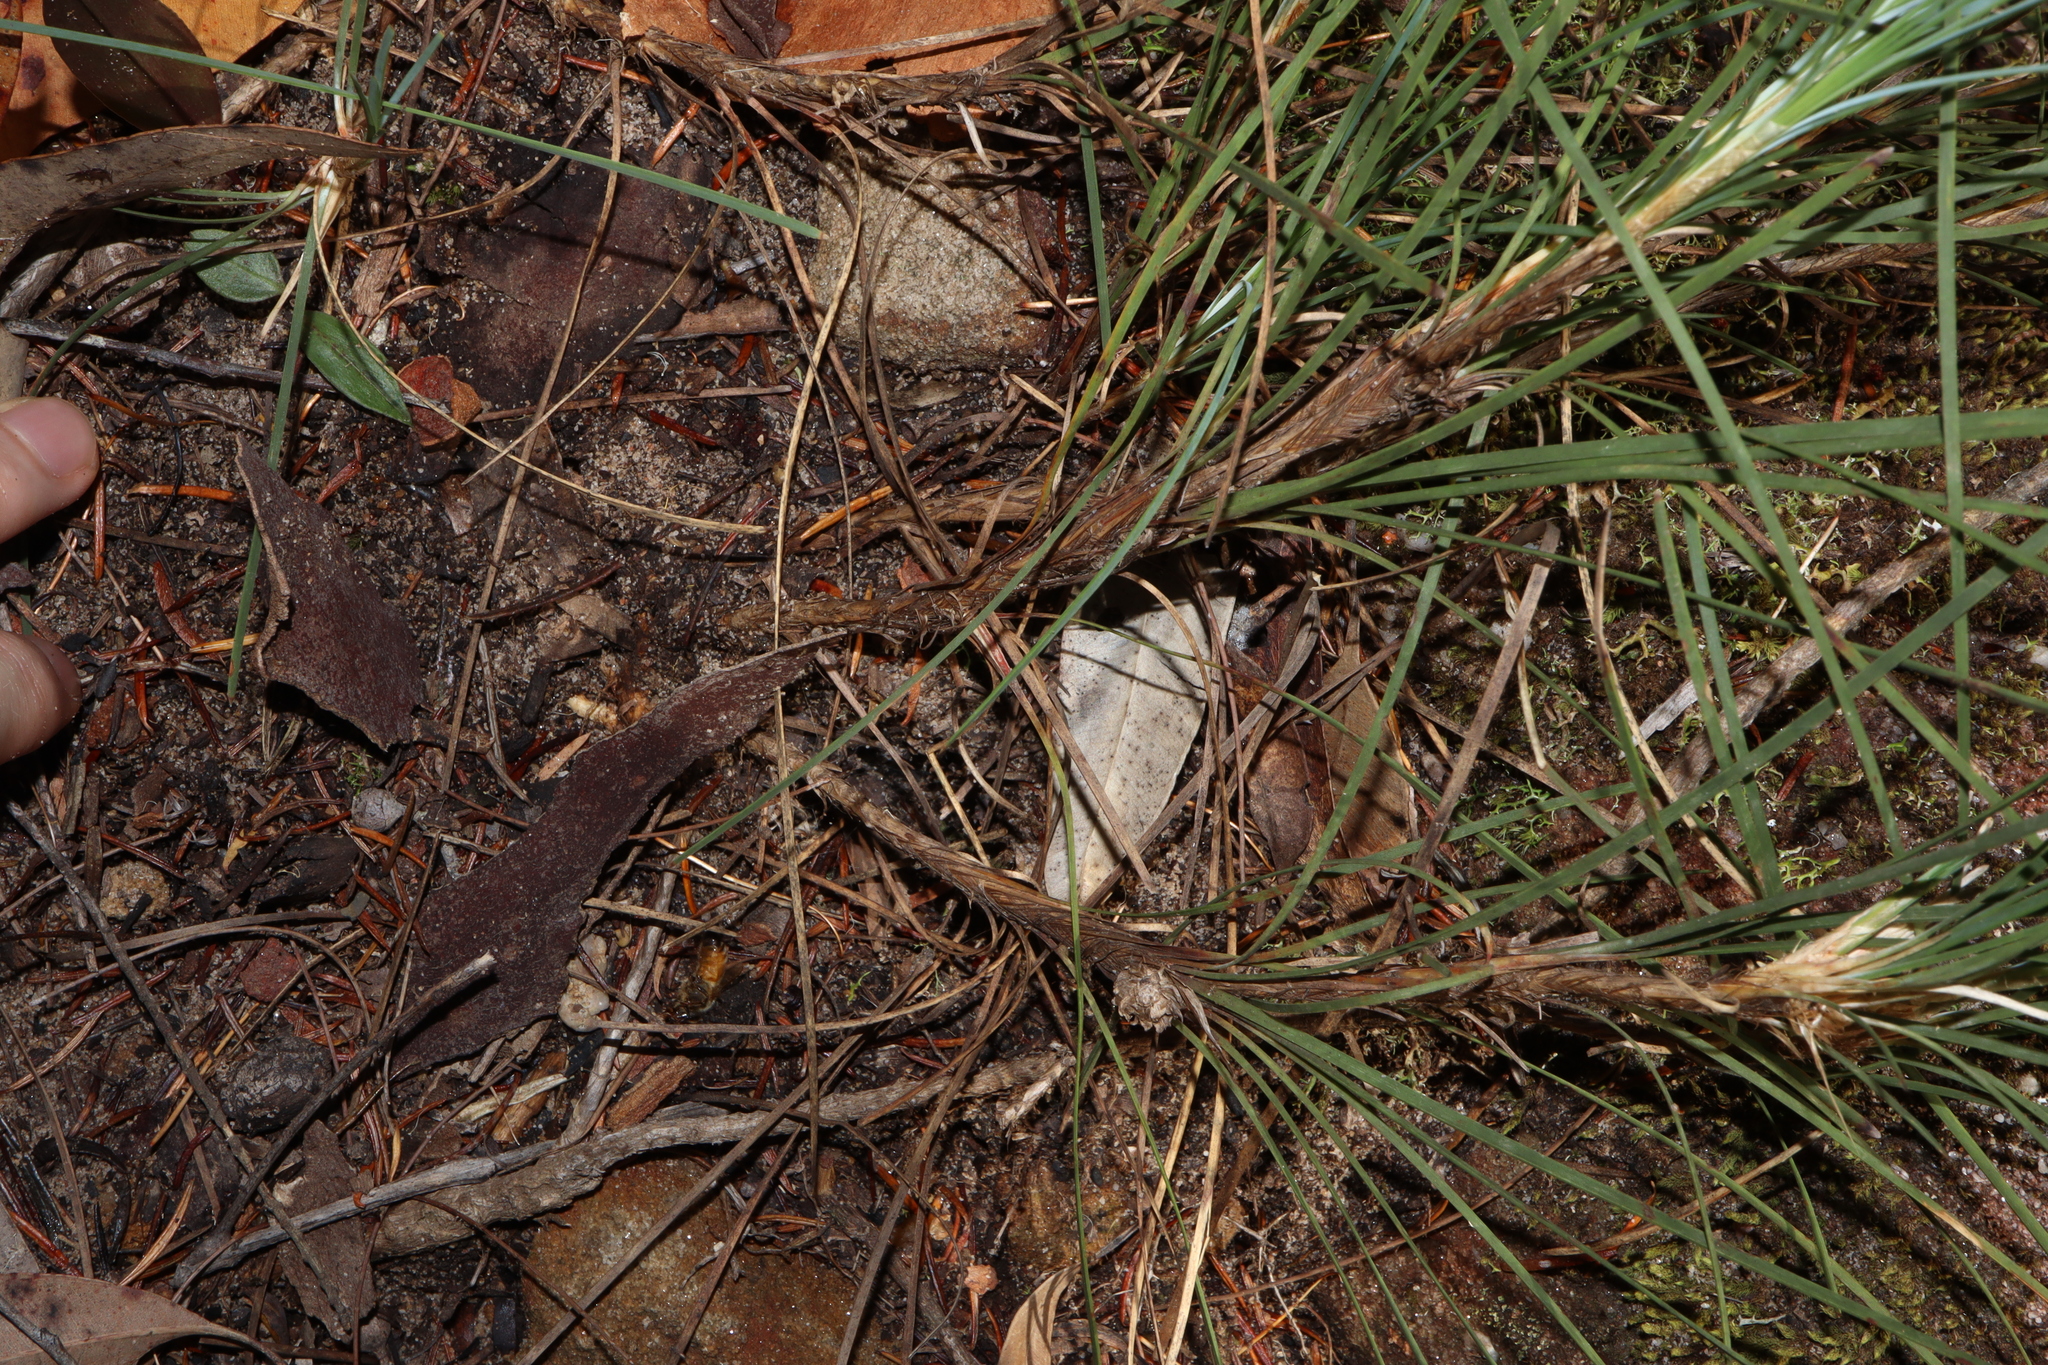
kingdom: Plantae
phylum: Tracheophyta
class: Liliopsida
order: Asparagales
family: Asparagaceae
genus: Lomandra
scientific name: Lomandra glauca
